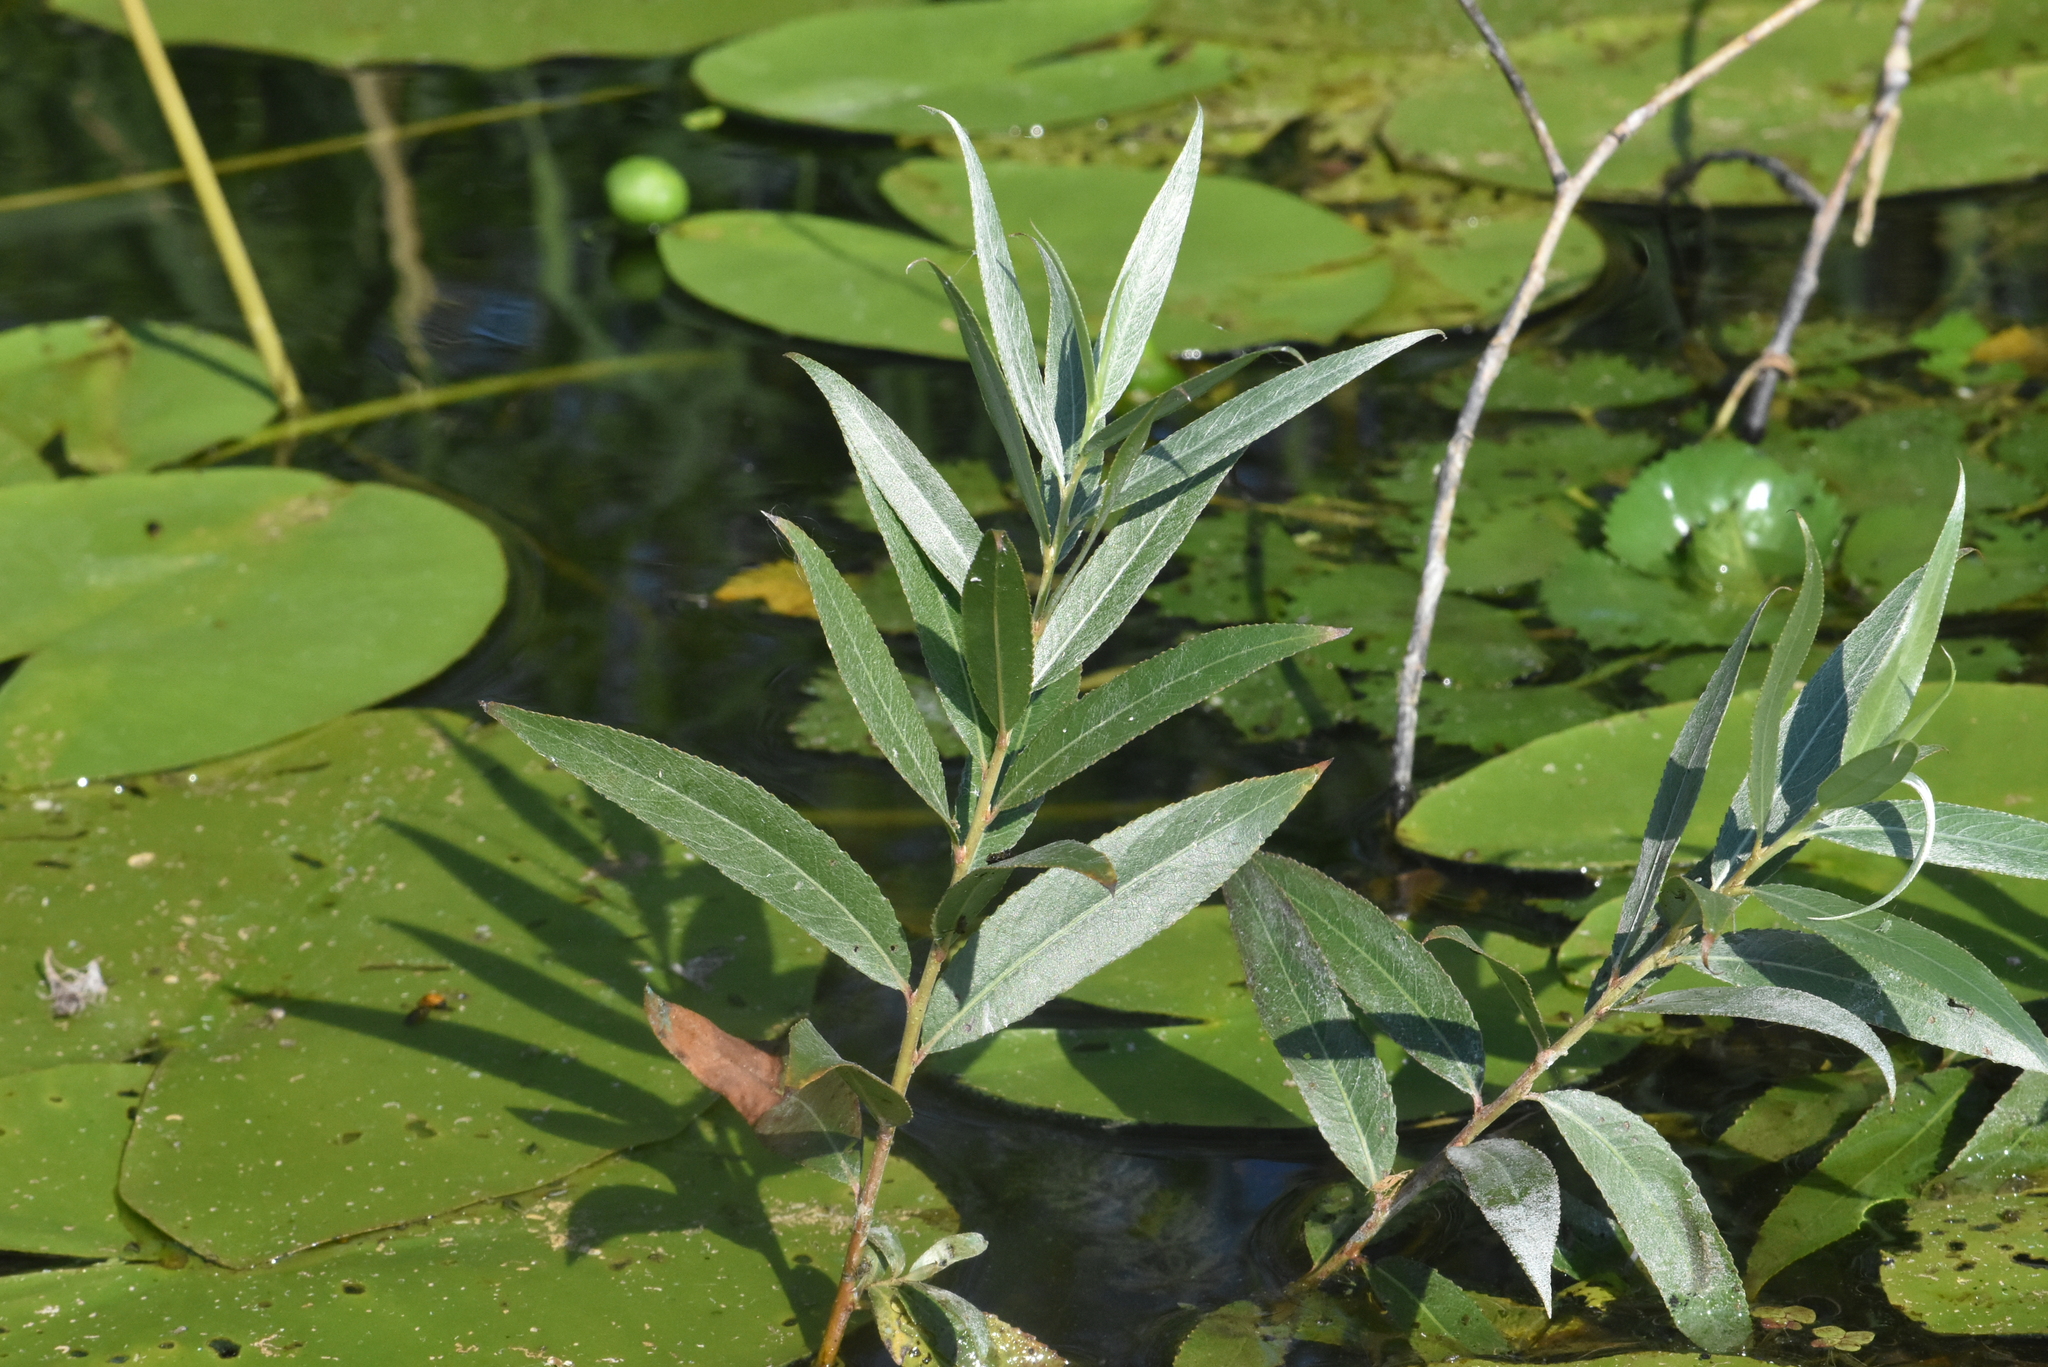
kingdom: Plantae
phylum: Tracheophyta
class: Magnoliopsida
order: Malpighiales
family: Salicaceae
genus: Salix
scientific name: Salix alba
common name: White willow
